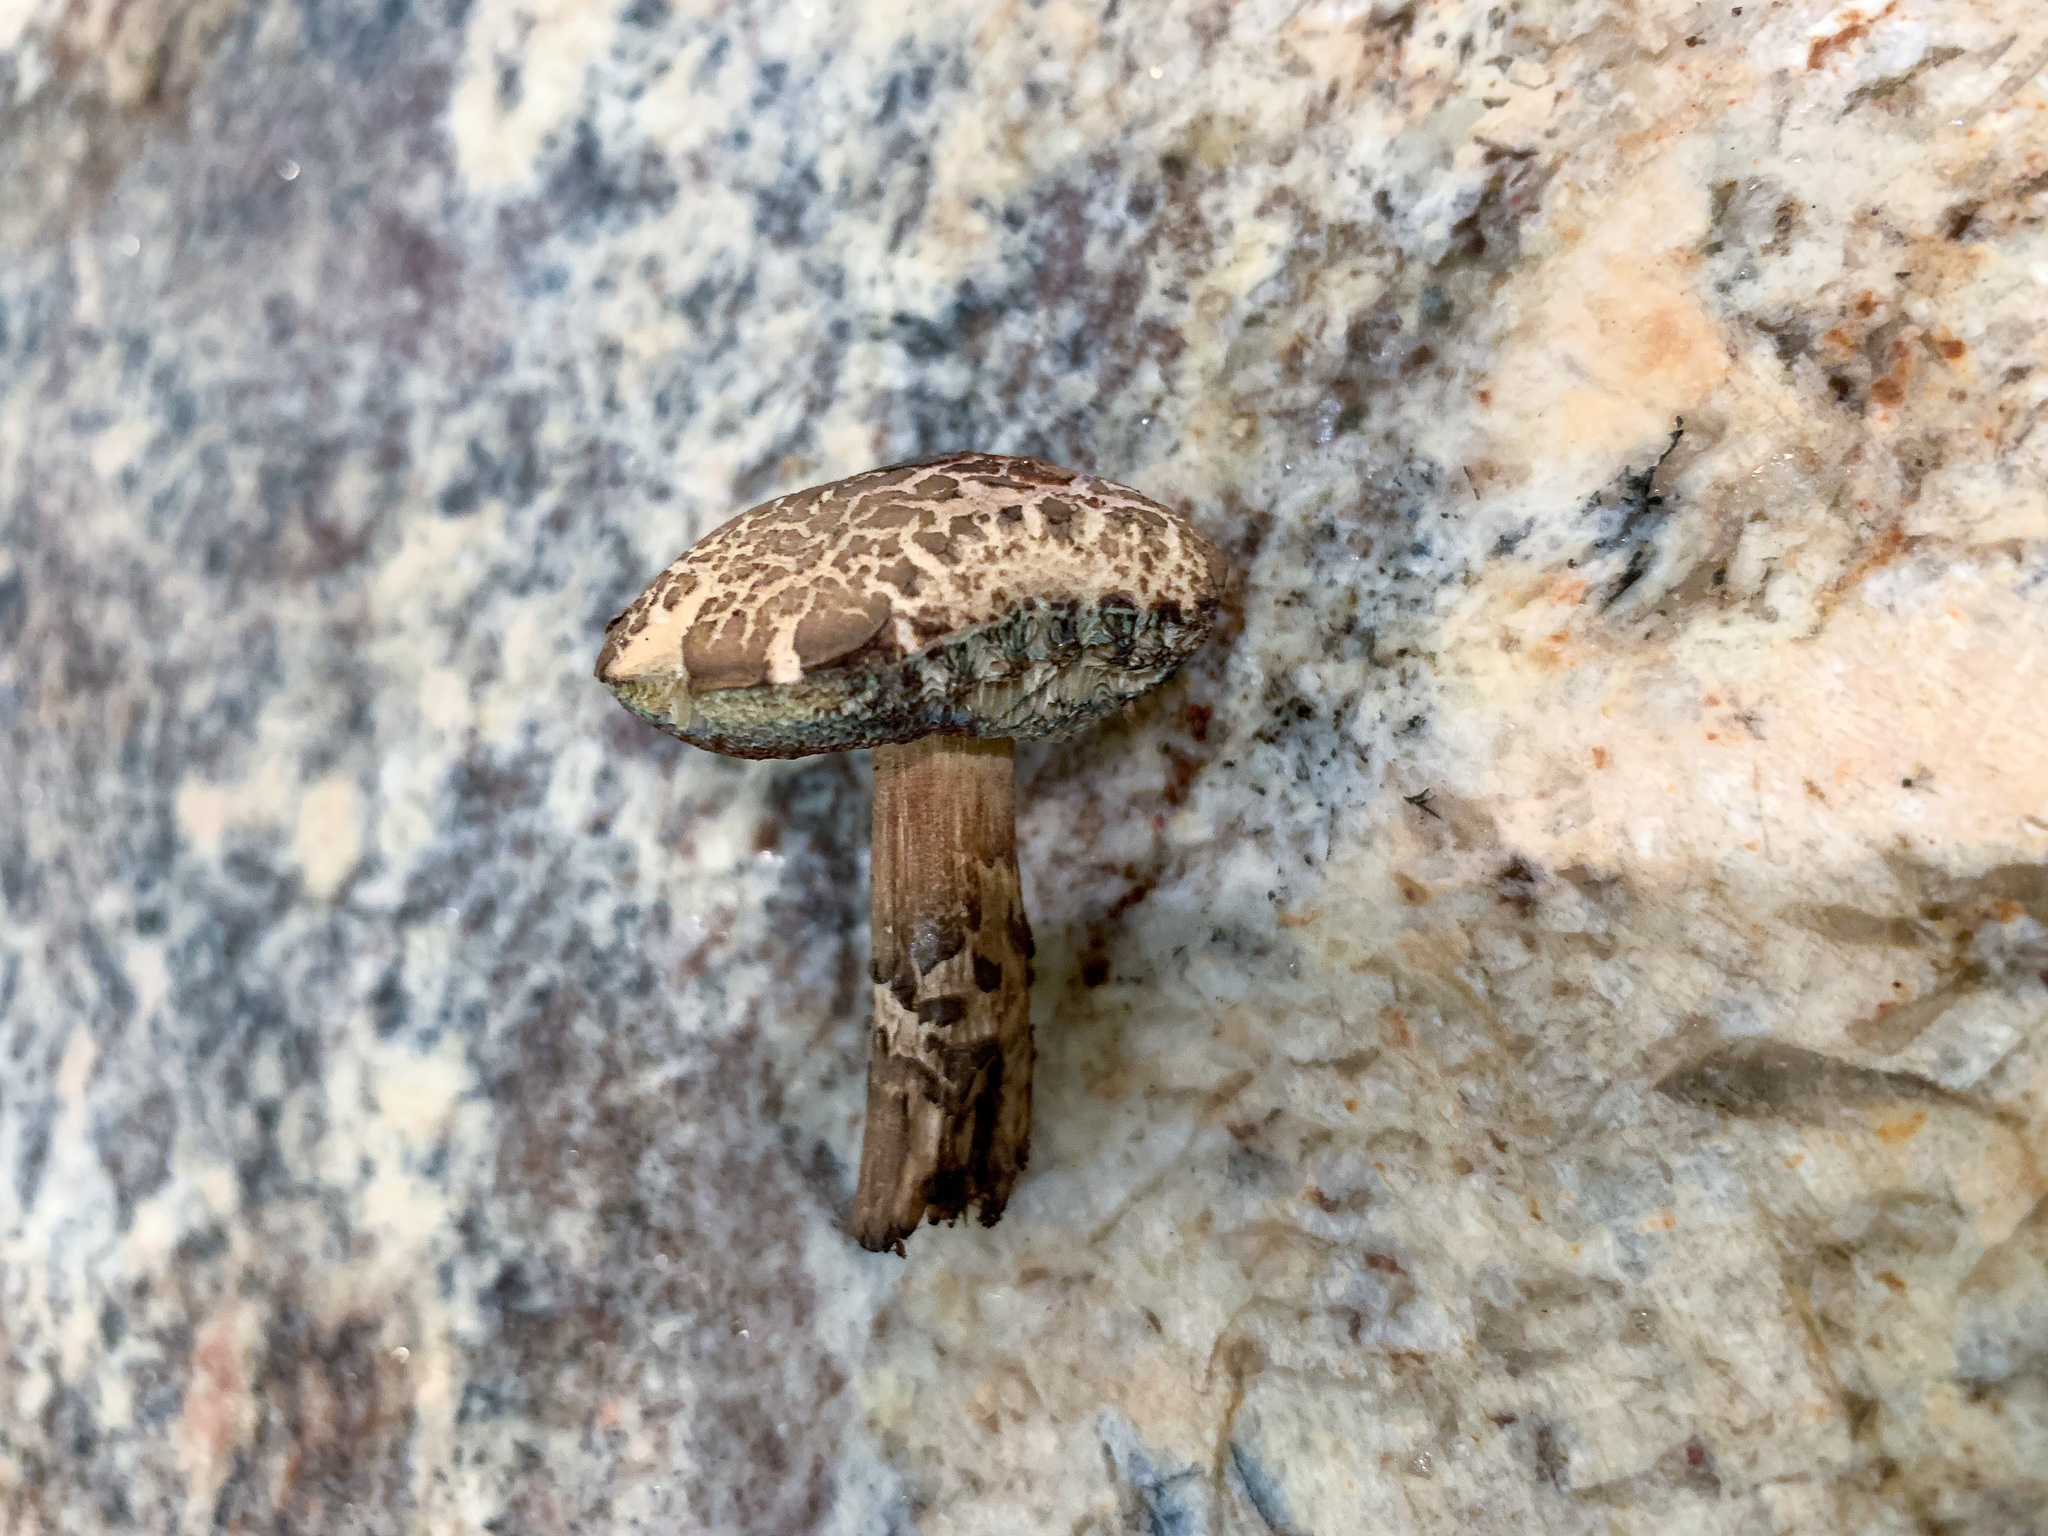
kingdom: Fungi
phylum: Basidiomycota
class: Agaricomycetes
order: Boletales
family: Boletaceae
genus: Porphyrellus
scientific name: Porphyrellus sordidus
